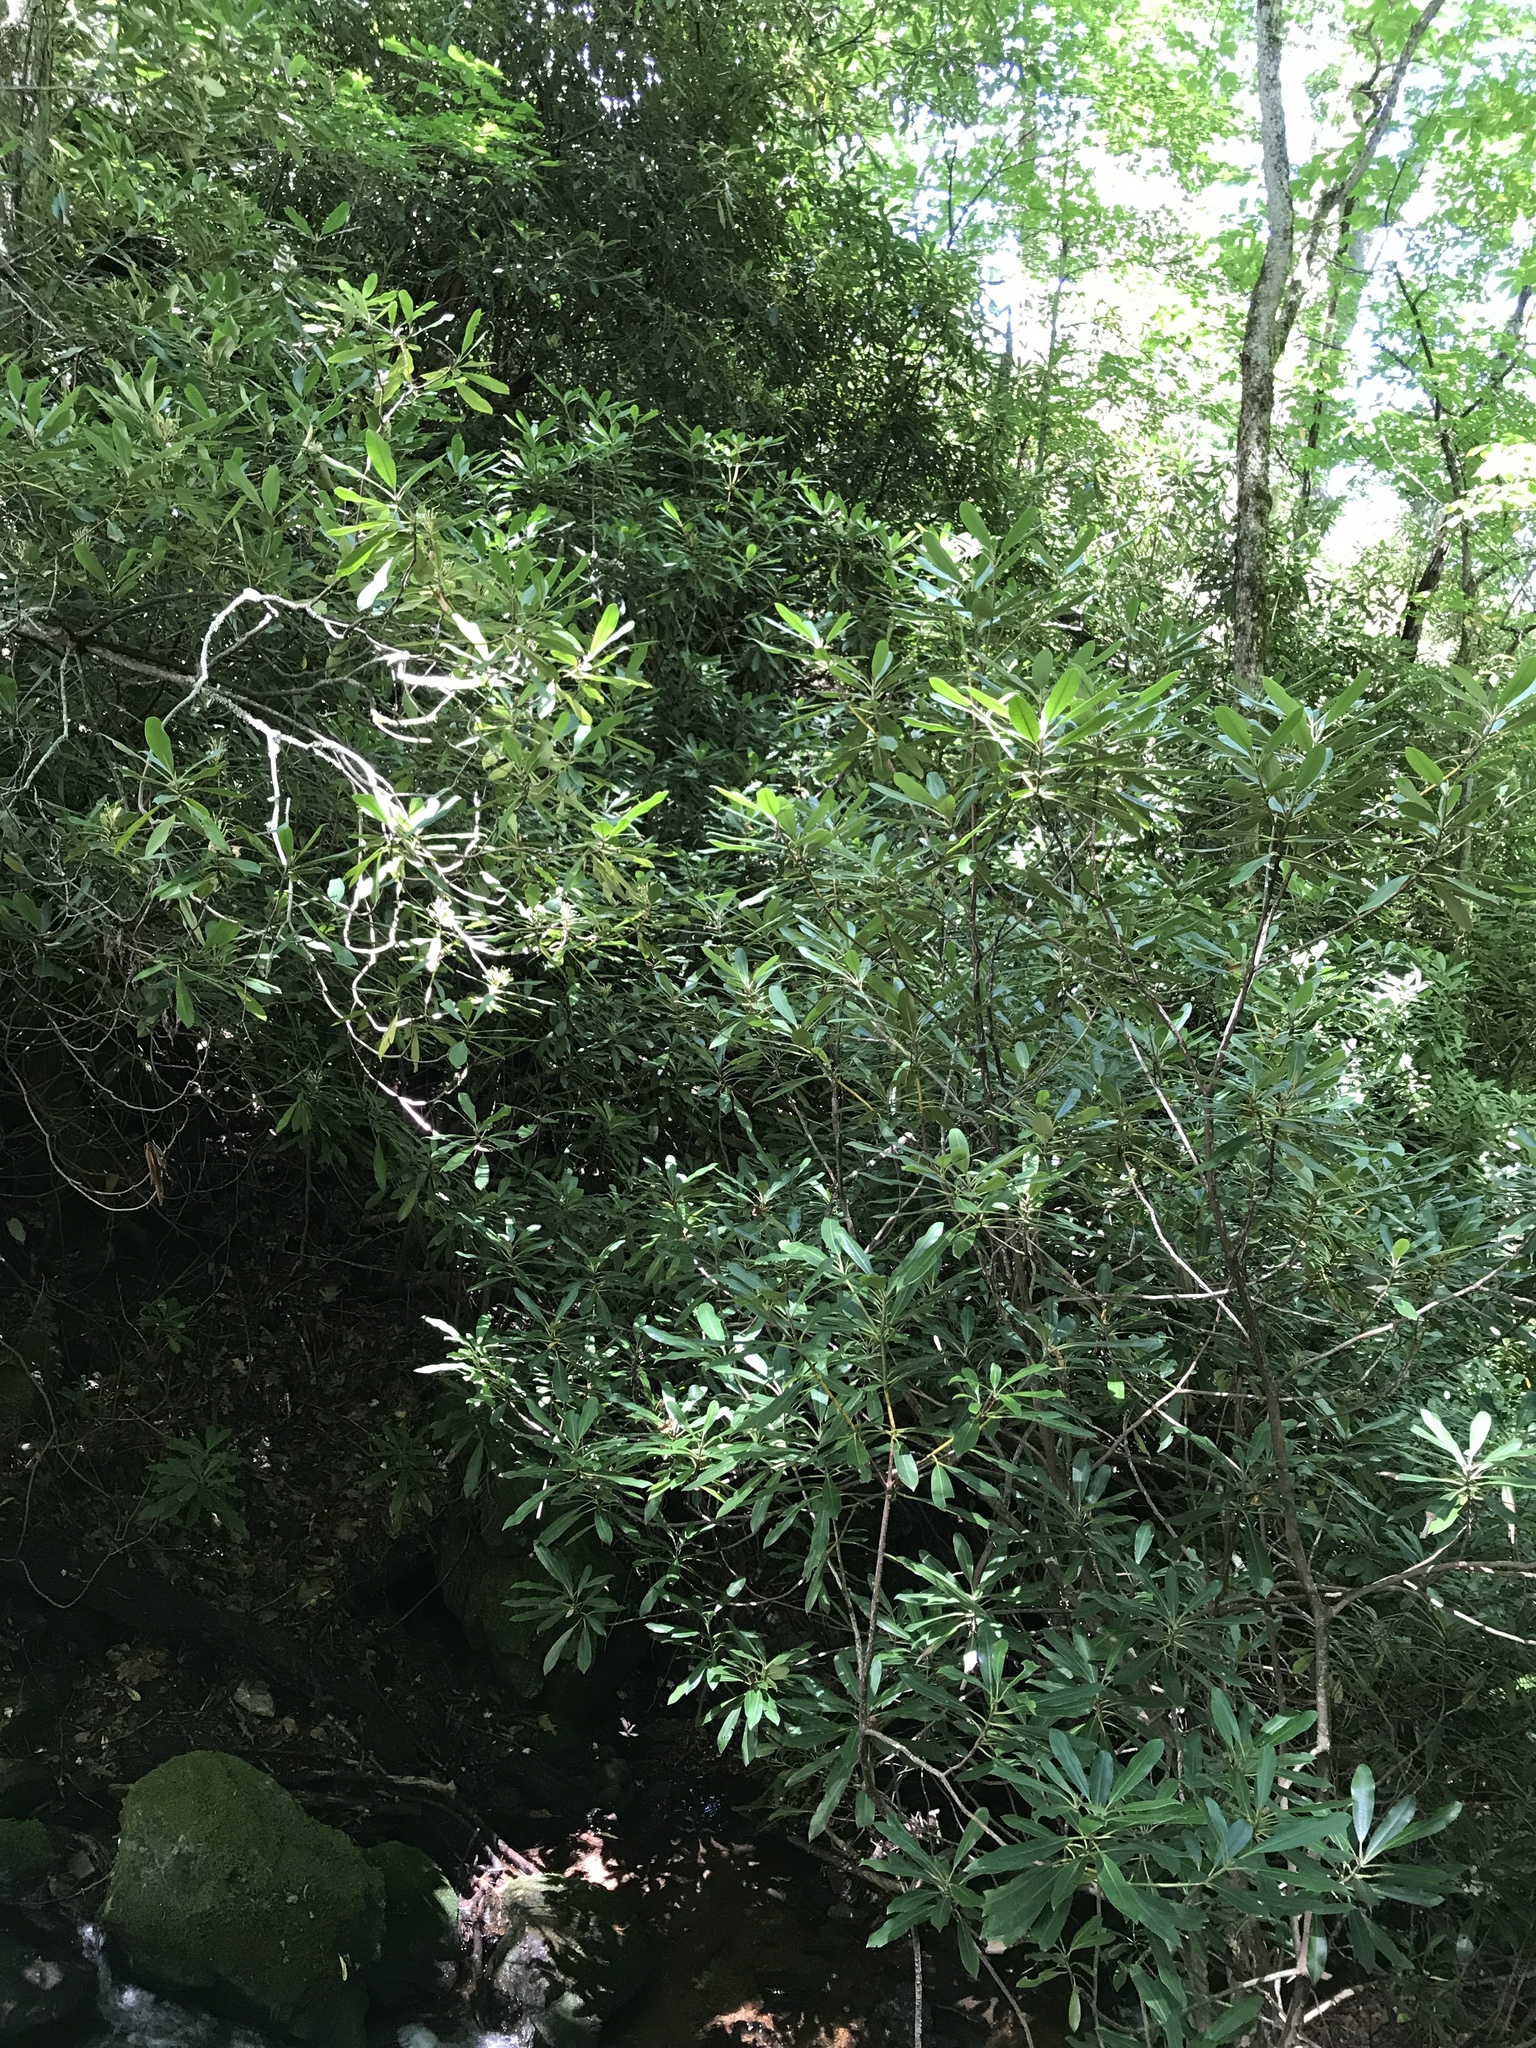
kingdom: Plantae
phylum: Tracheophyta
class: Magnoliopsida
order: Ericales
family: Ericaceae
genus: Rhododendron
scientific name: Rhododendron maximum
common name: Great rhododendron
